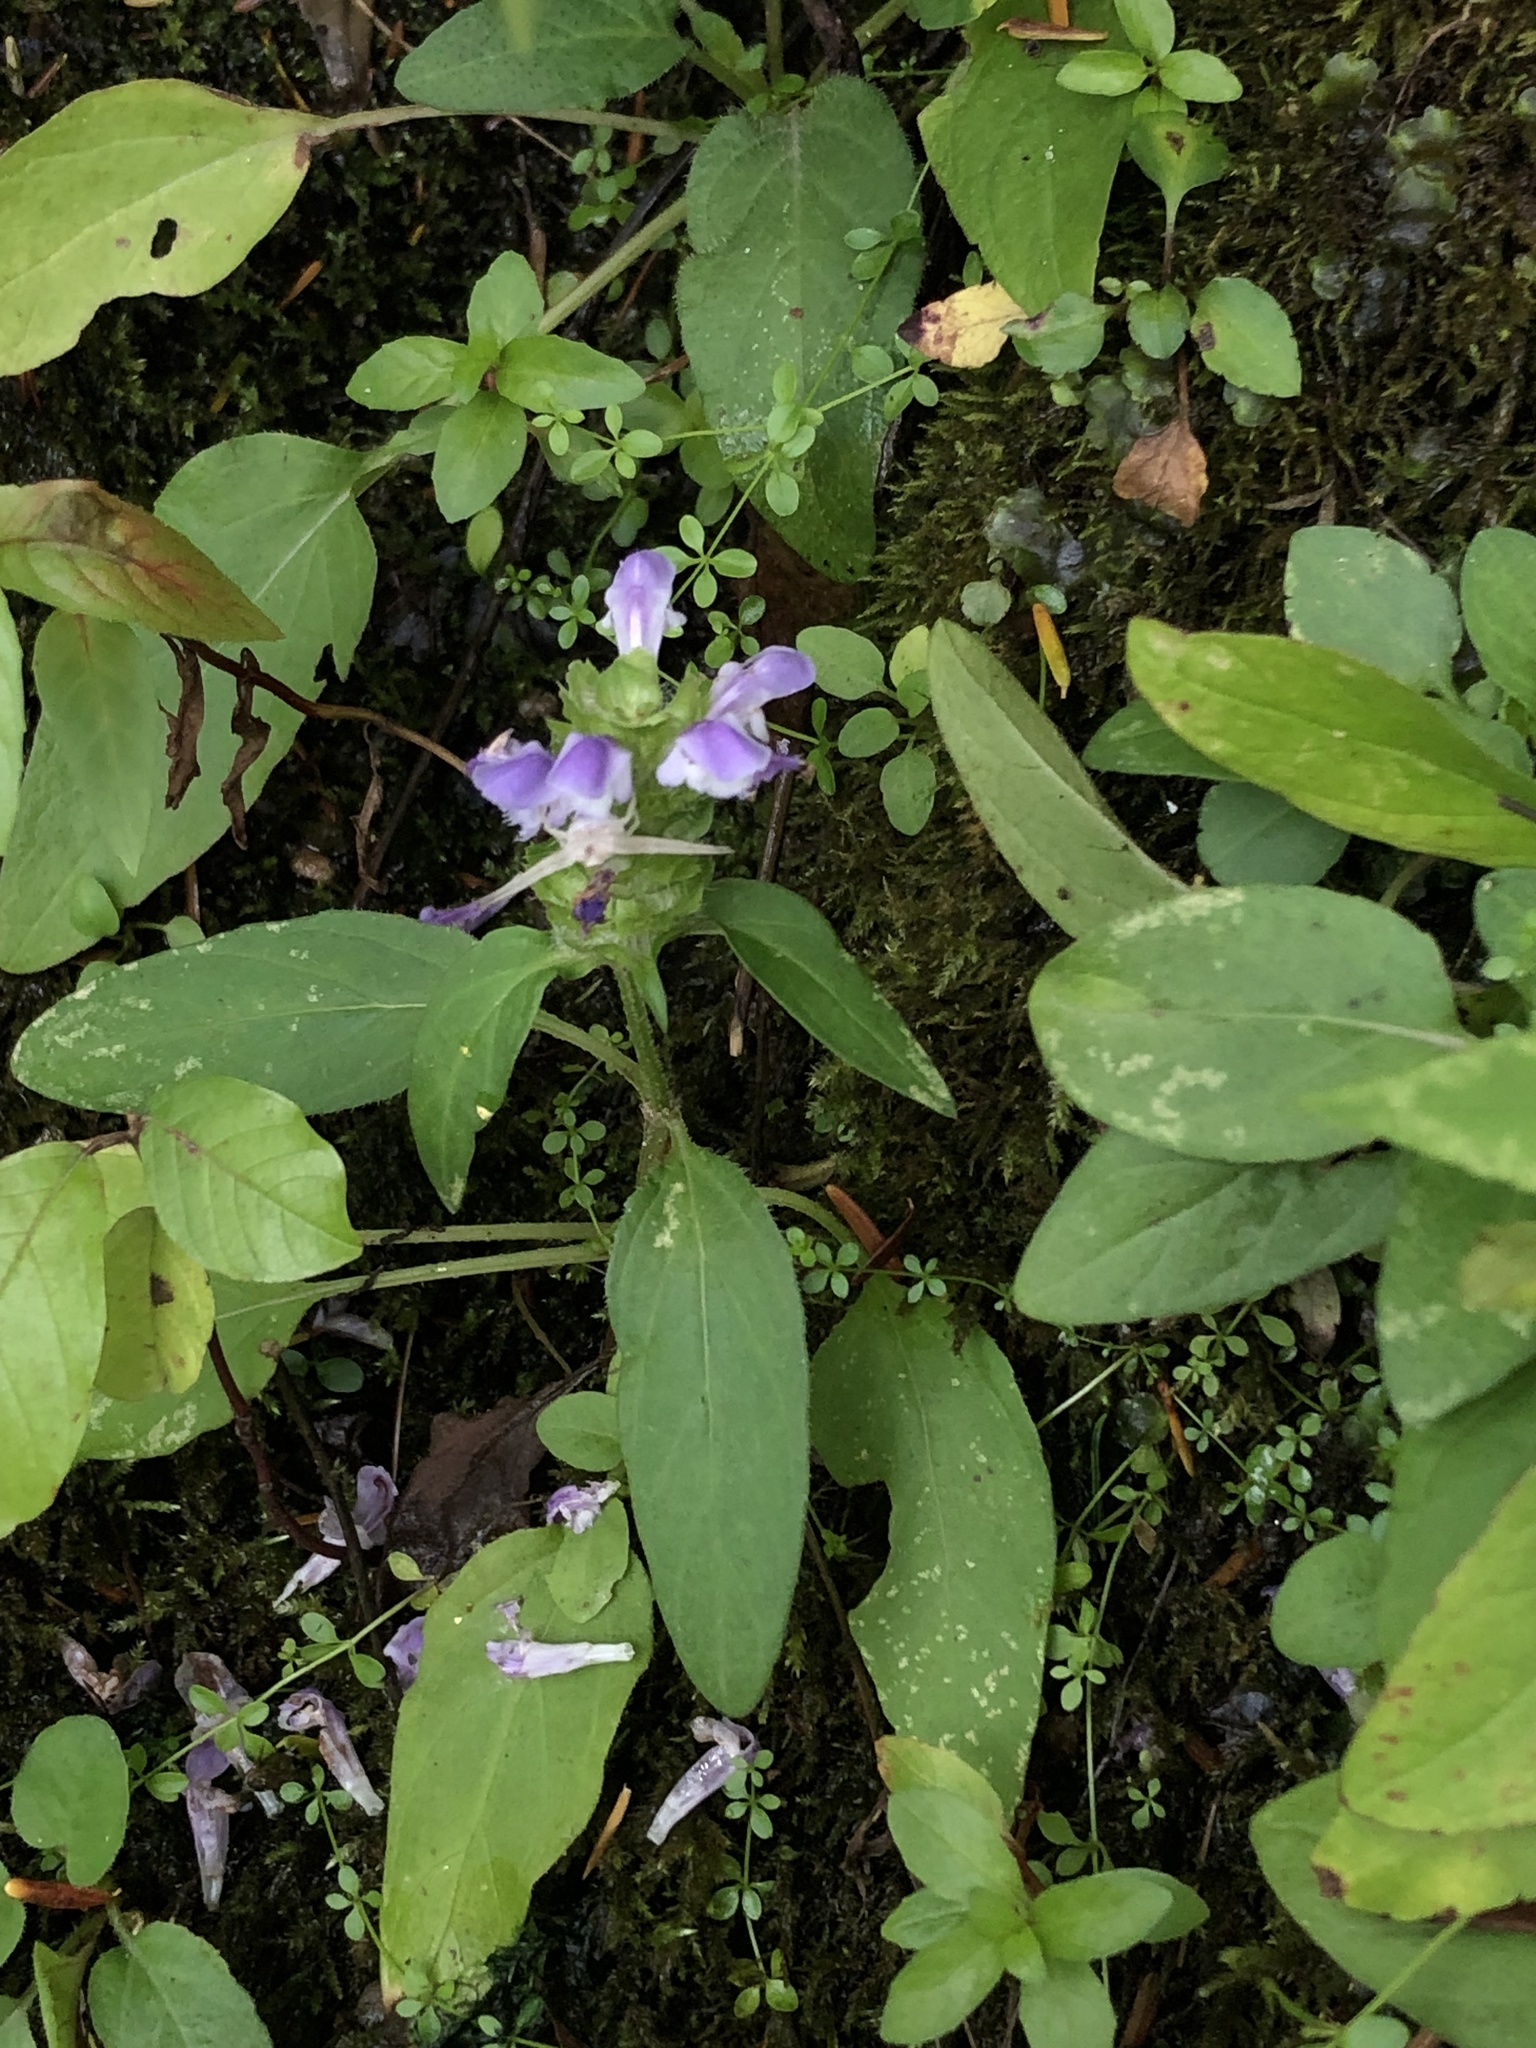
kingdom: Plantae
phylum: Tracheophyta
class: Magnoliopsida
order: Lamiales
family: Lamiaceae
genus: Prunella
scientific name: Prunella vulgaris
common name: Heal-all
